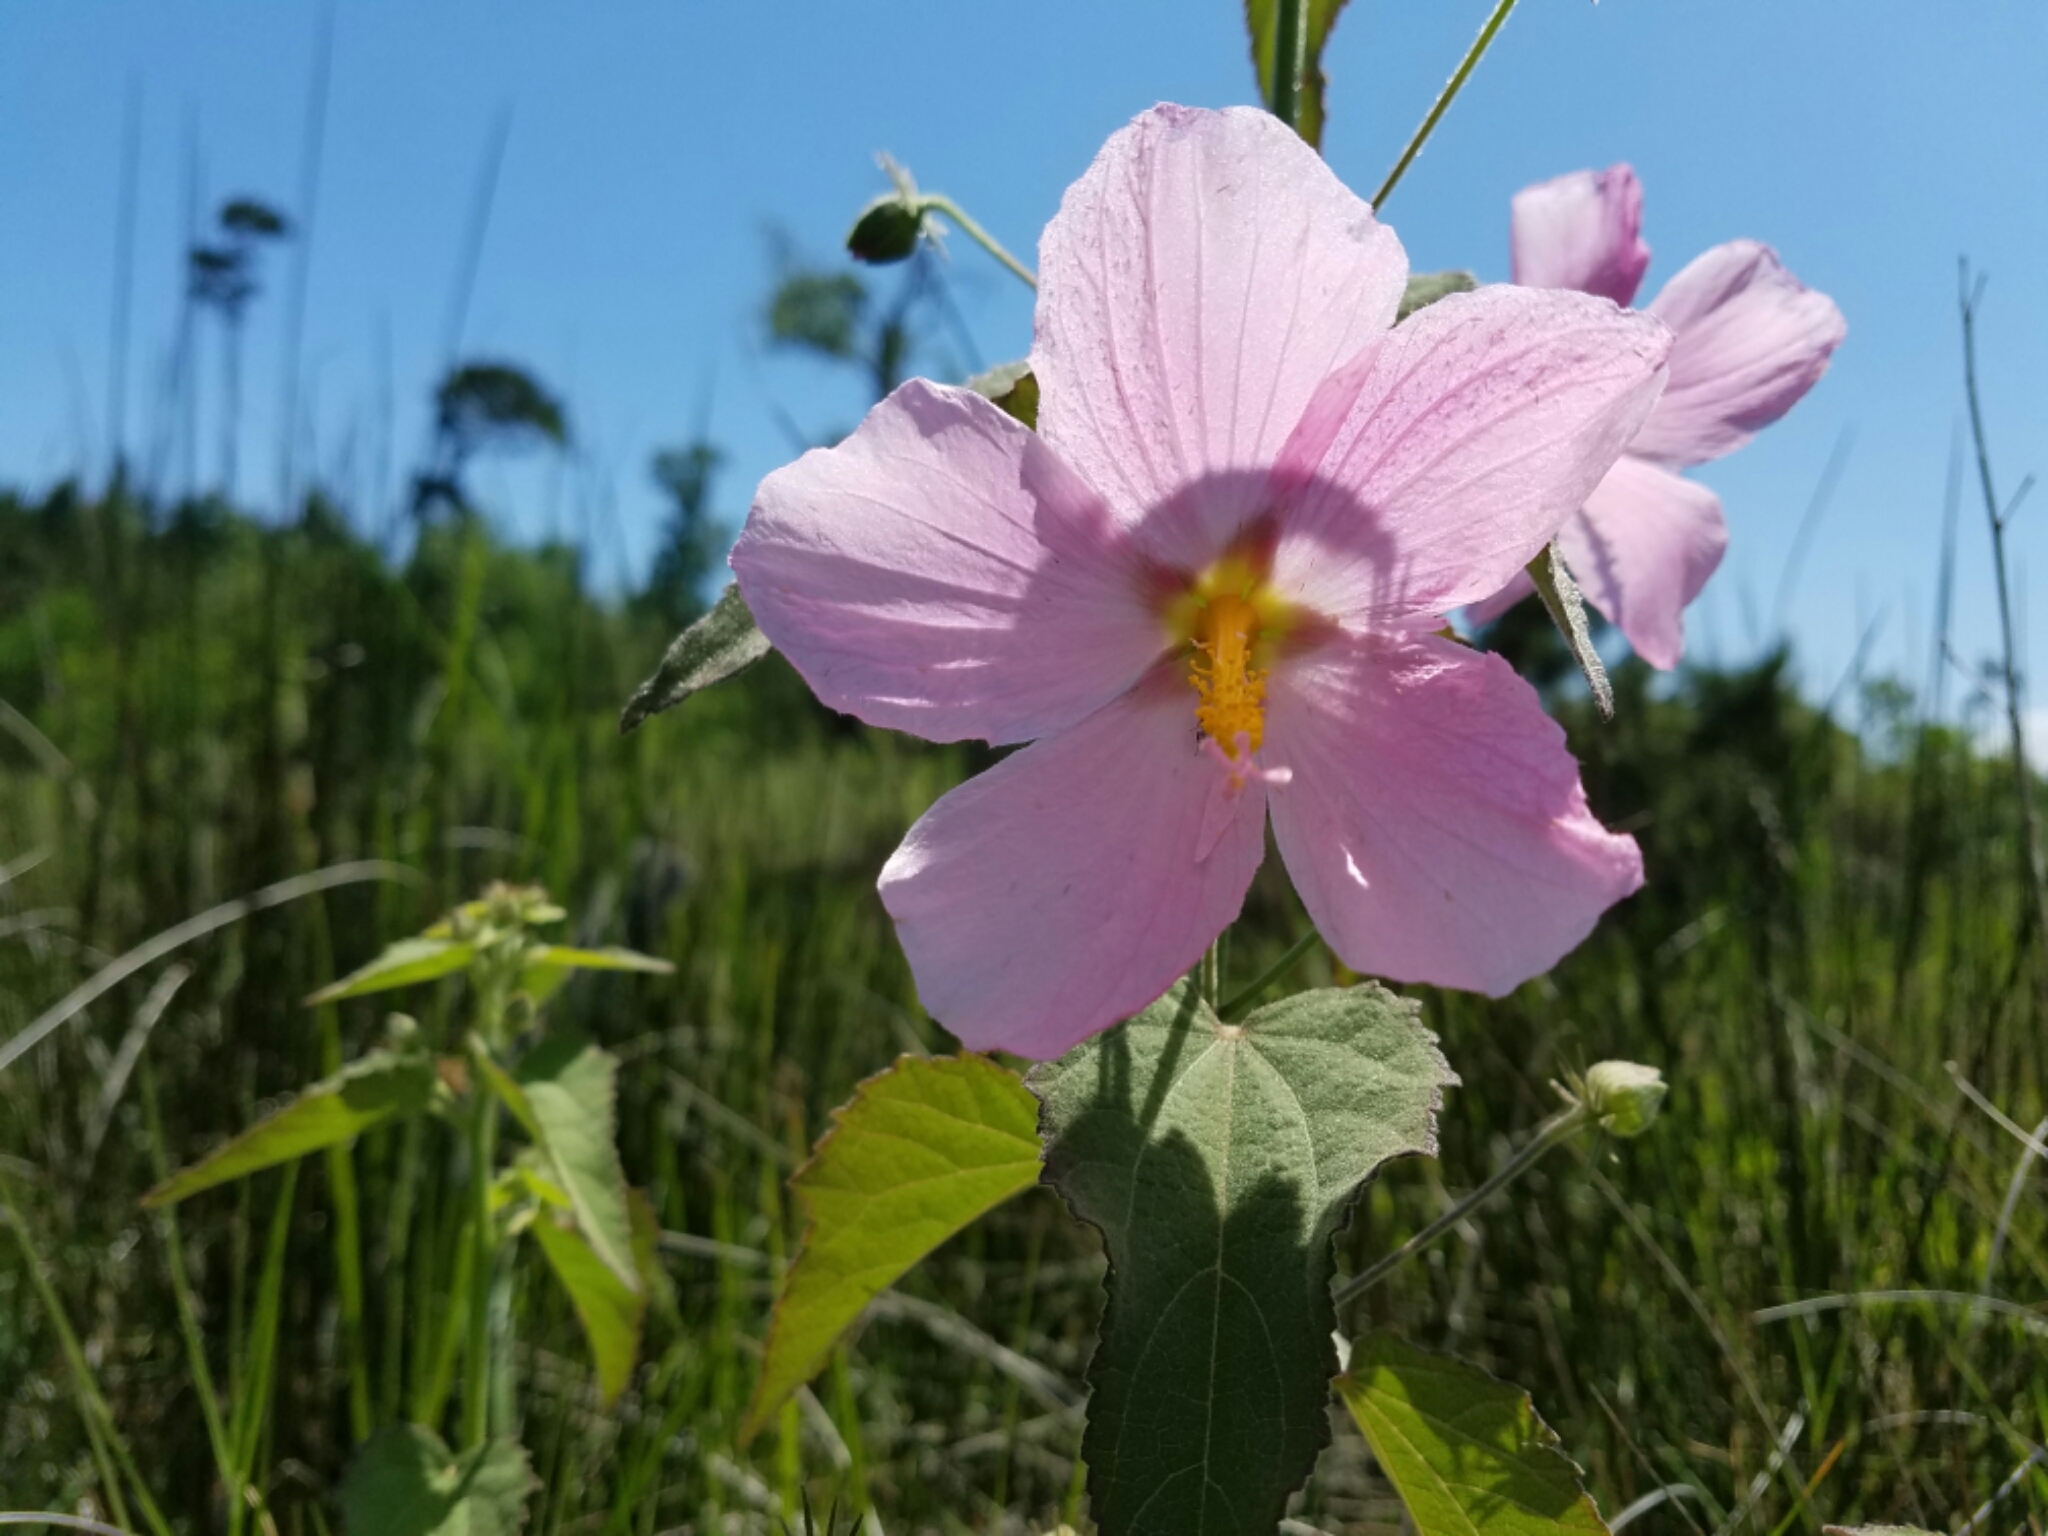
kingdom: Plantae
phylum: Tracheophyta
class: Magnoliopsida
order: Malvales
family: Malvaceae
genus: Kosteletzkya
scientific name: Kosteletzkya pentacarpos
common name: Virginia saltmarsh mallow
